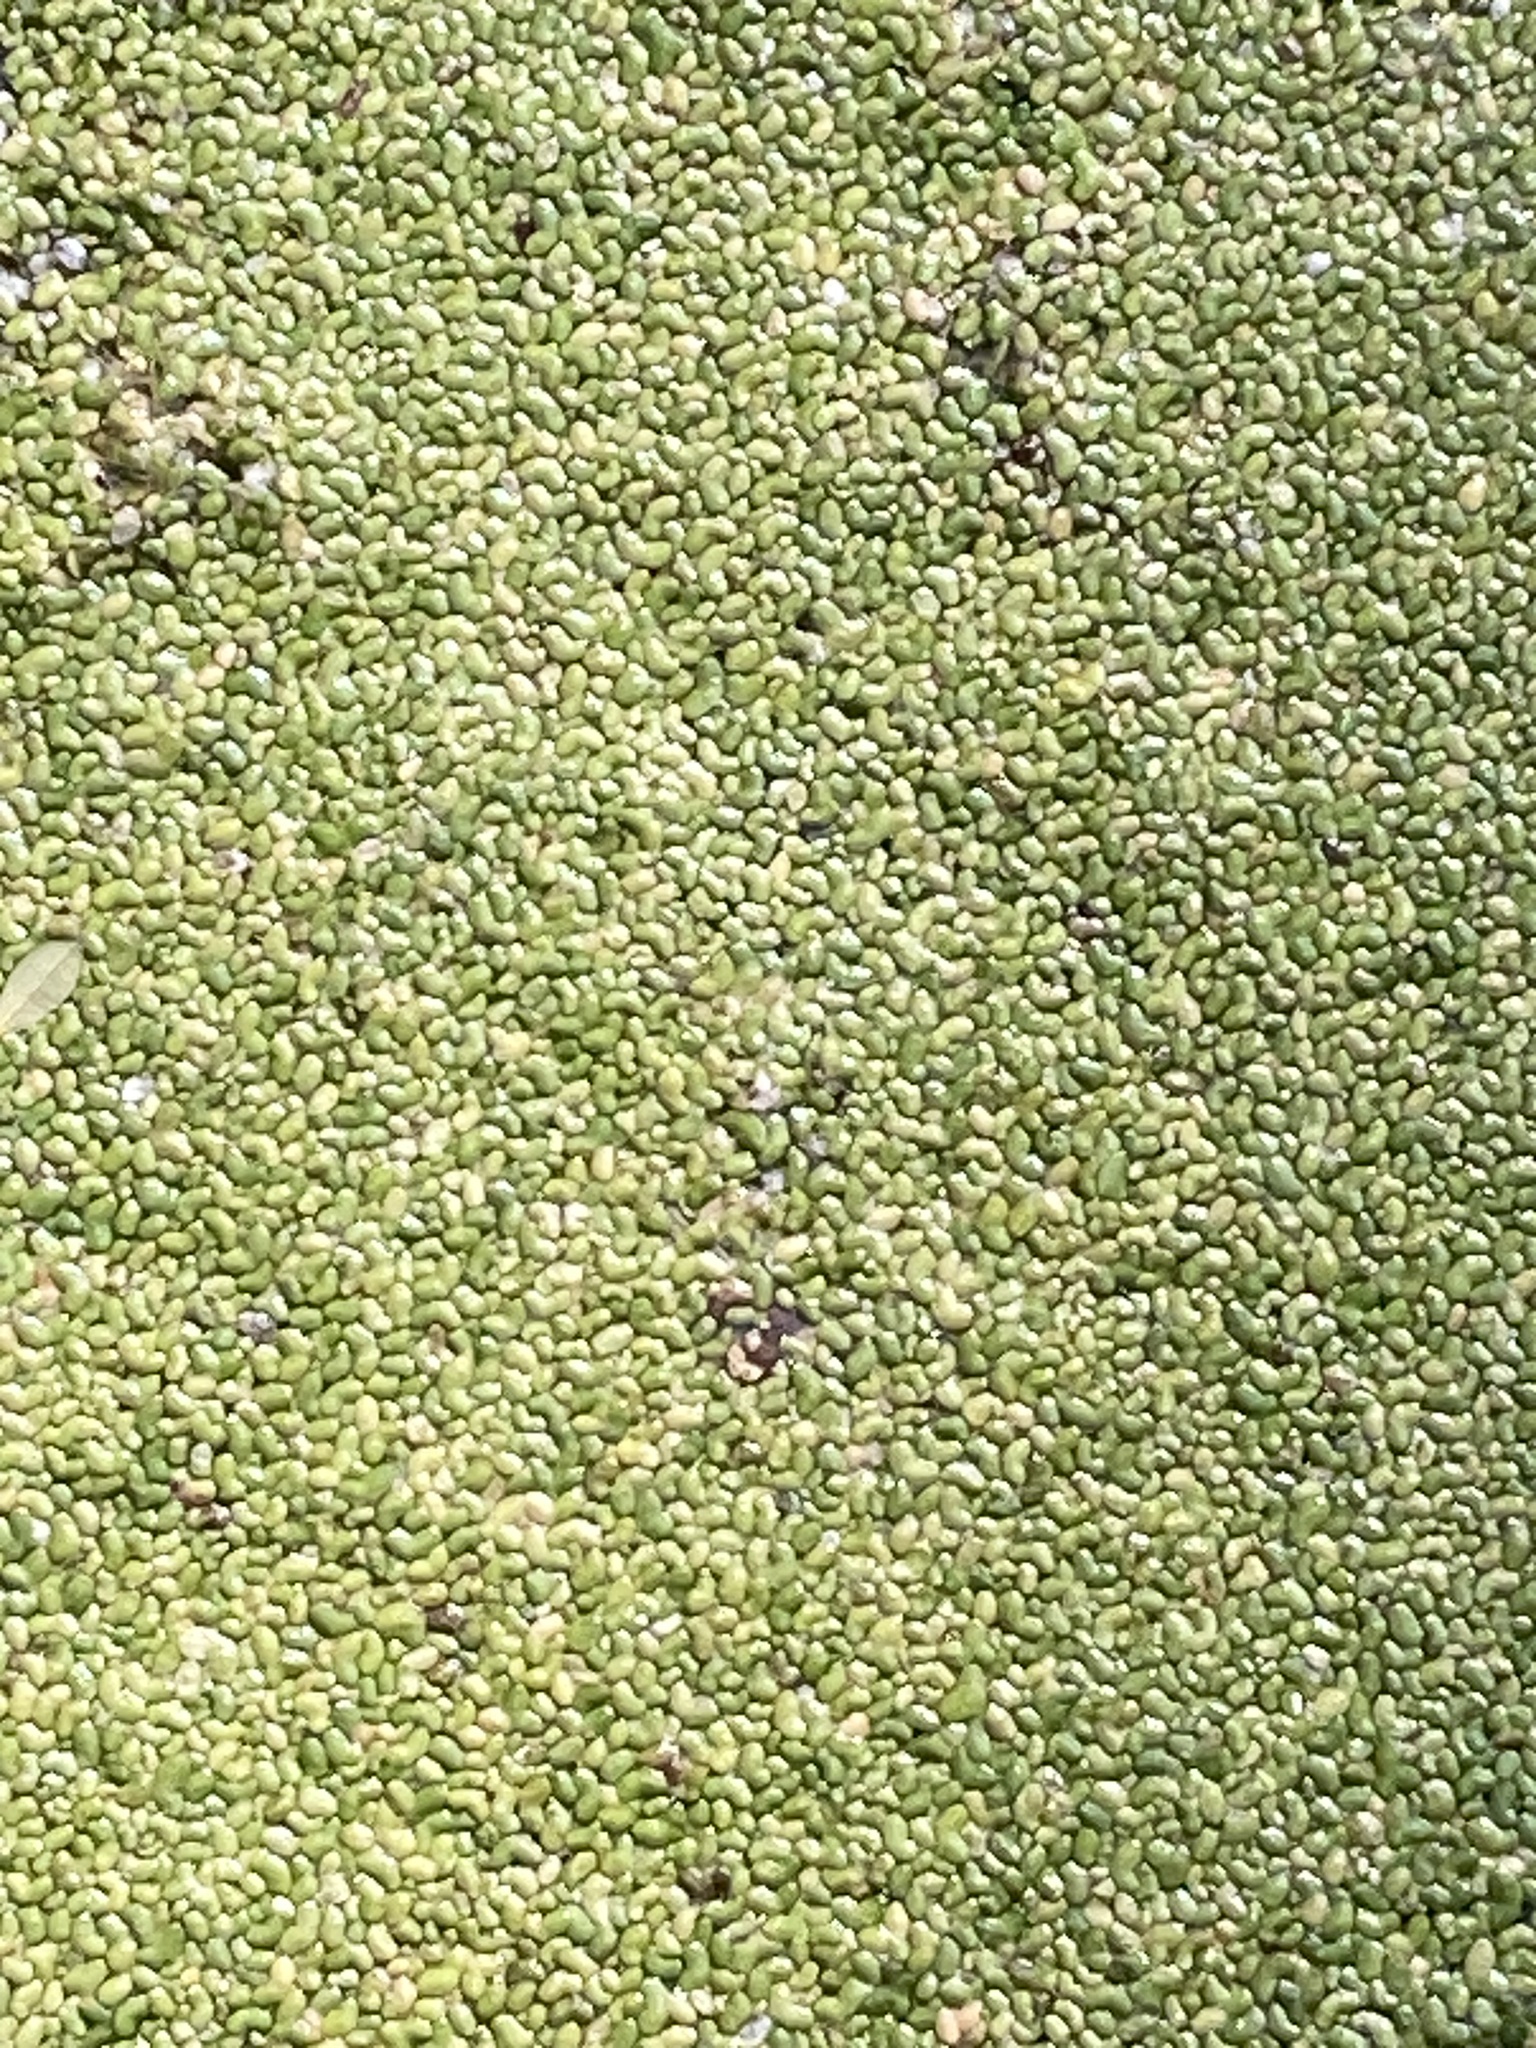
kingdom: Plantae
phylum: Tracheophyta
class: Liliopsida
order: Alismatales
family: Araceae
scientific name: Araceae
